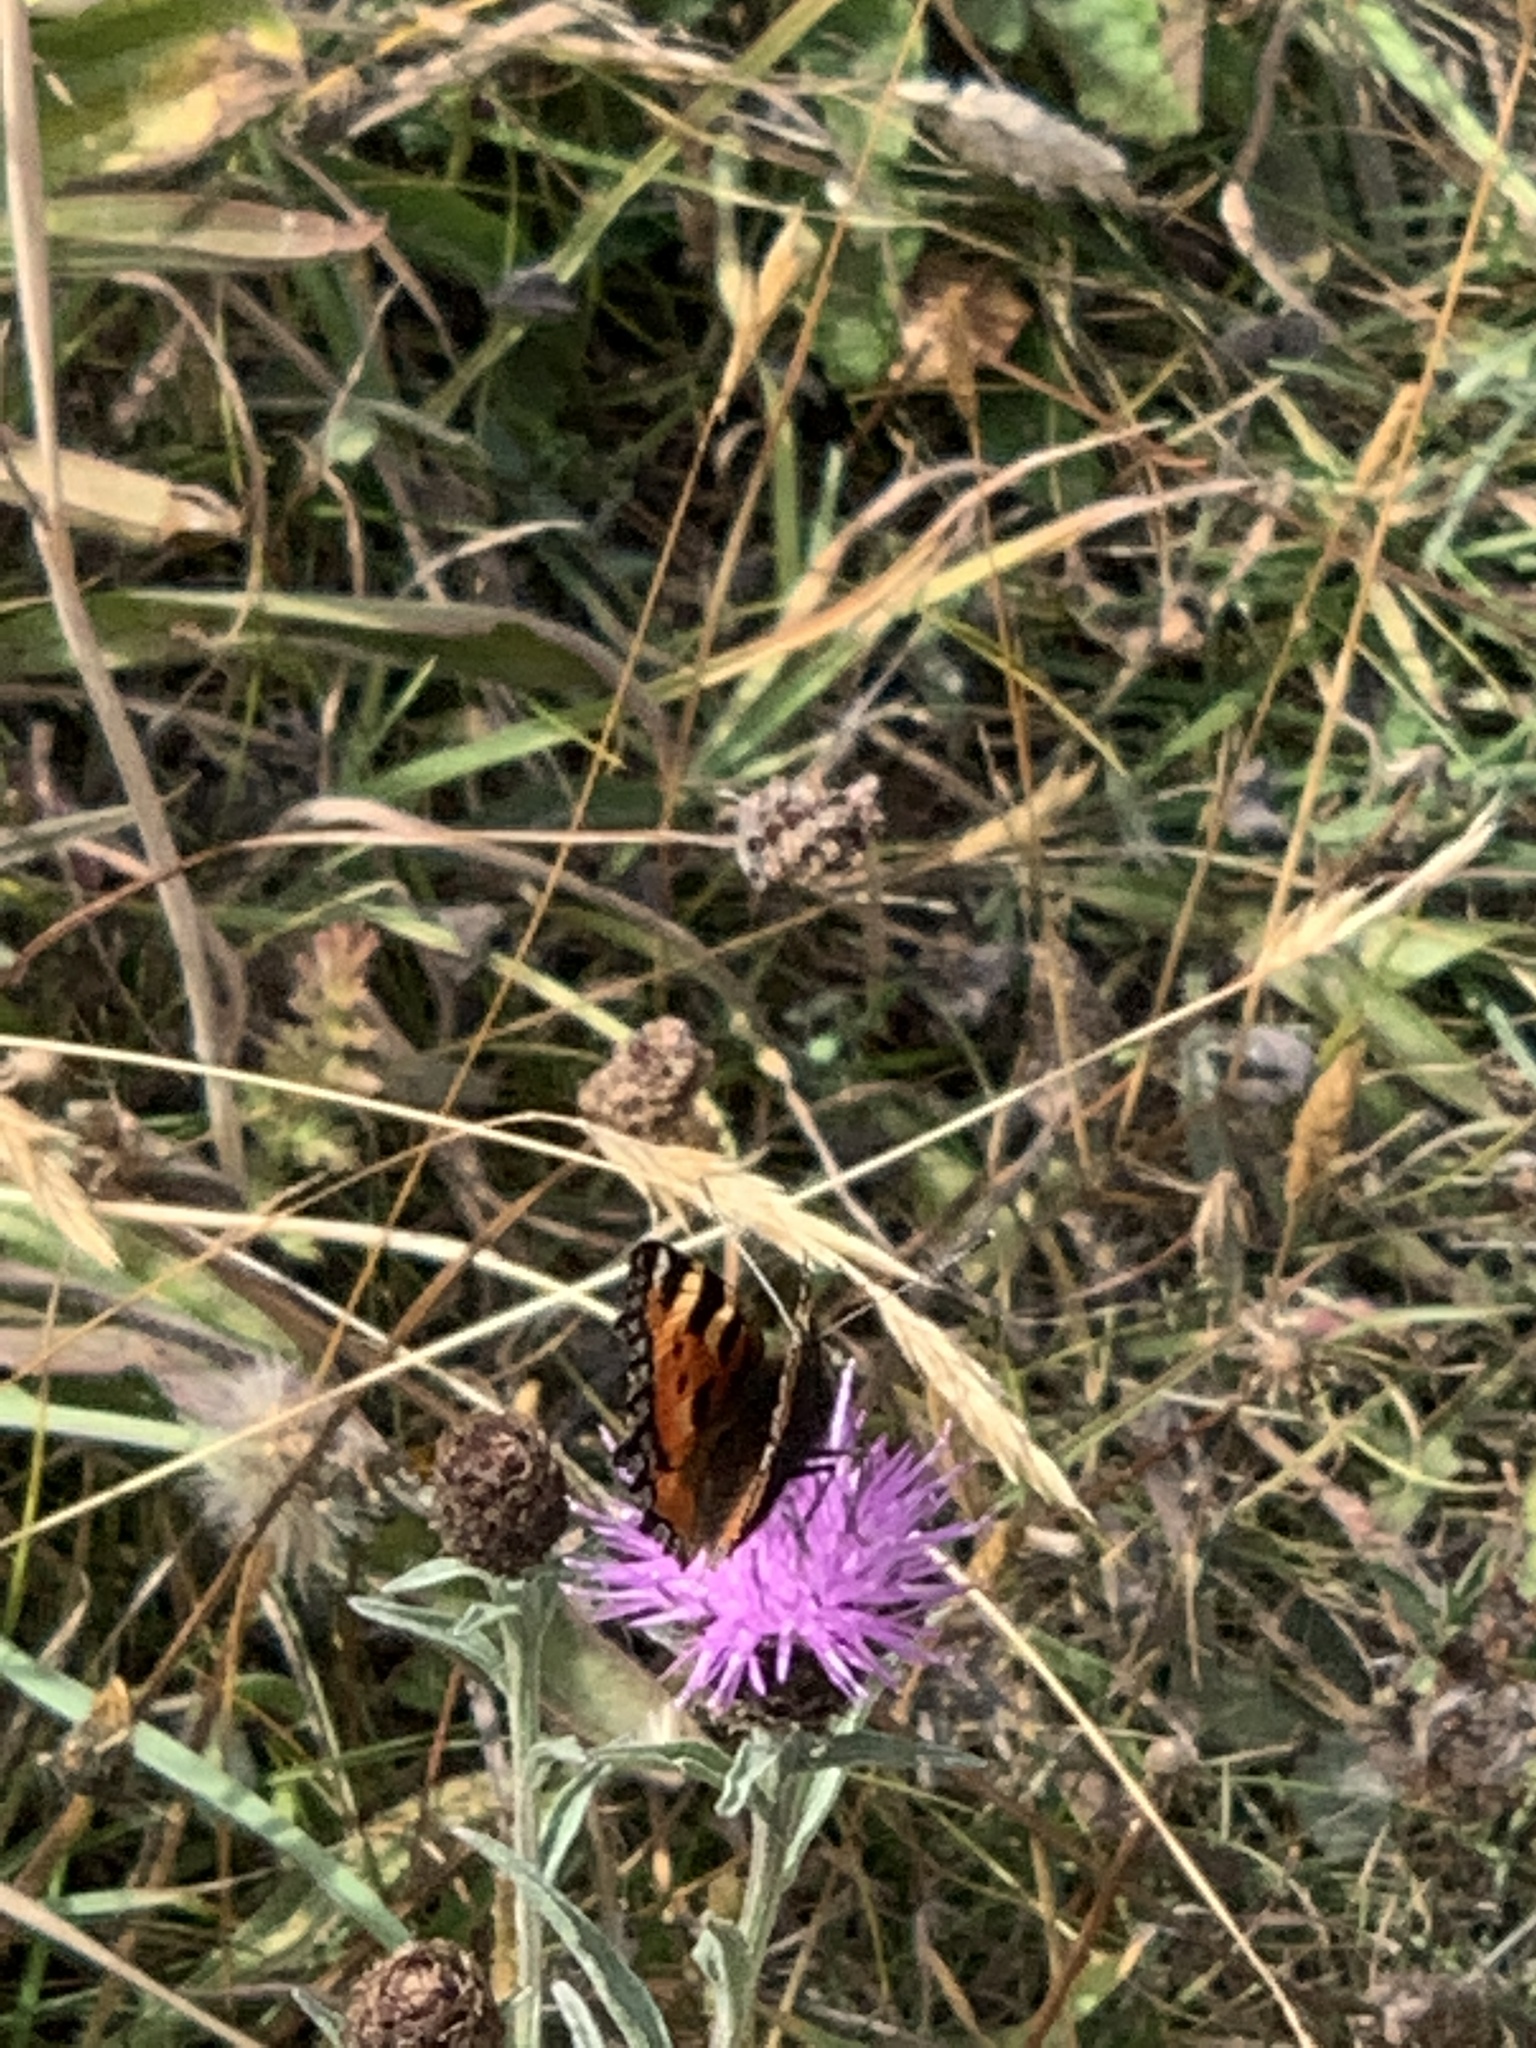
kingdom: Animalia
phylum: Arthropoda
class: Insecta
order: Lepidoptera
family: Nymphalidae
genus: Aglais
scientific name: Aglais urticae
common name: Small tortoiseshell
